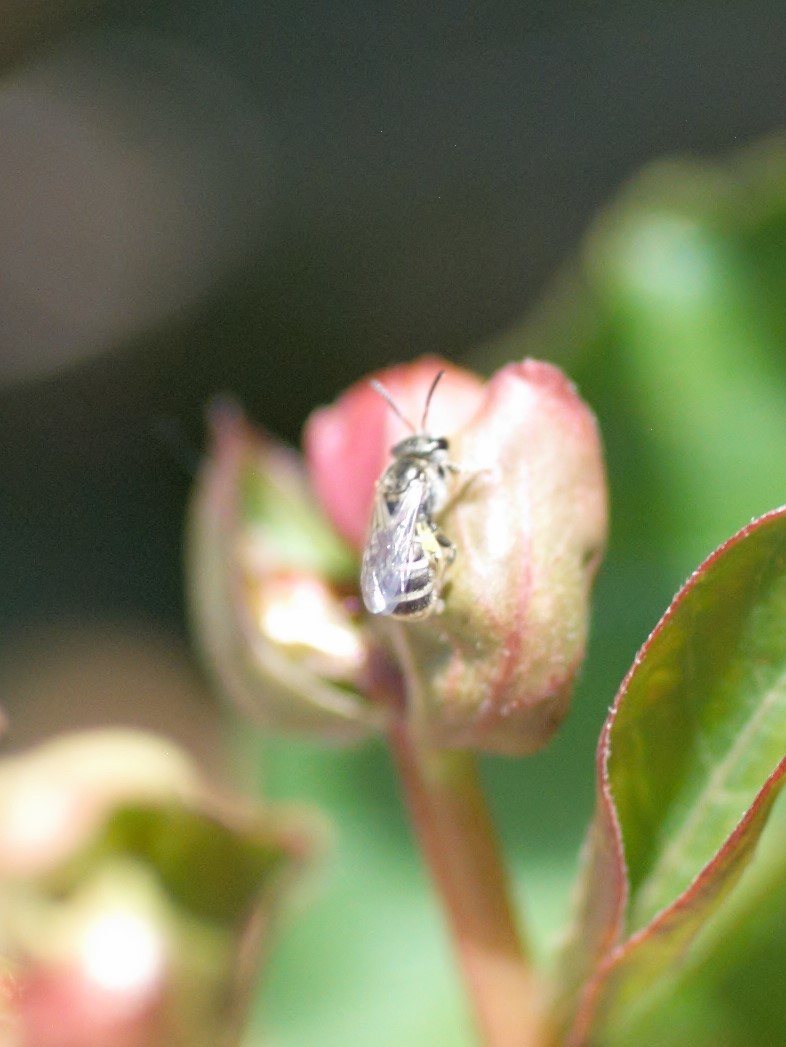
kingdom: Animalia
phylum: Arthropoda
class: Insecta
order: Hymenoptera
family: Halictidae
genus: Halictus
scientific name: Halictus tripartitus
